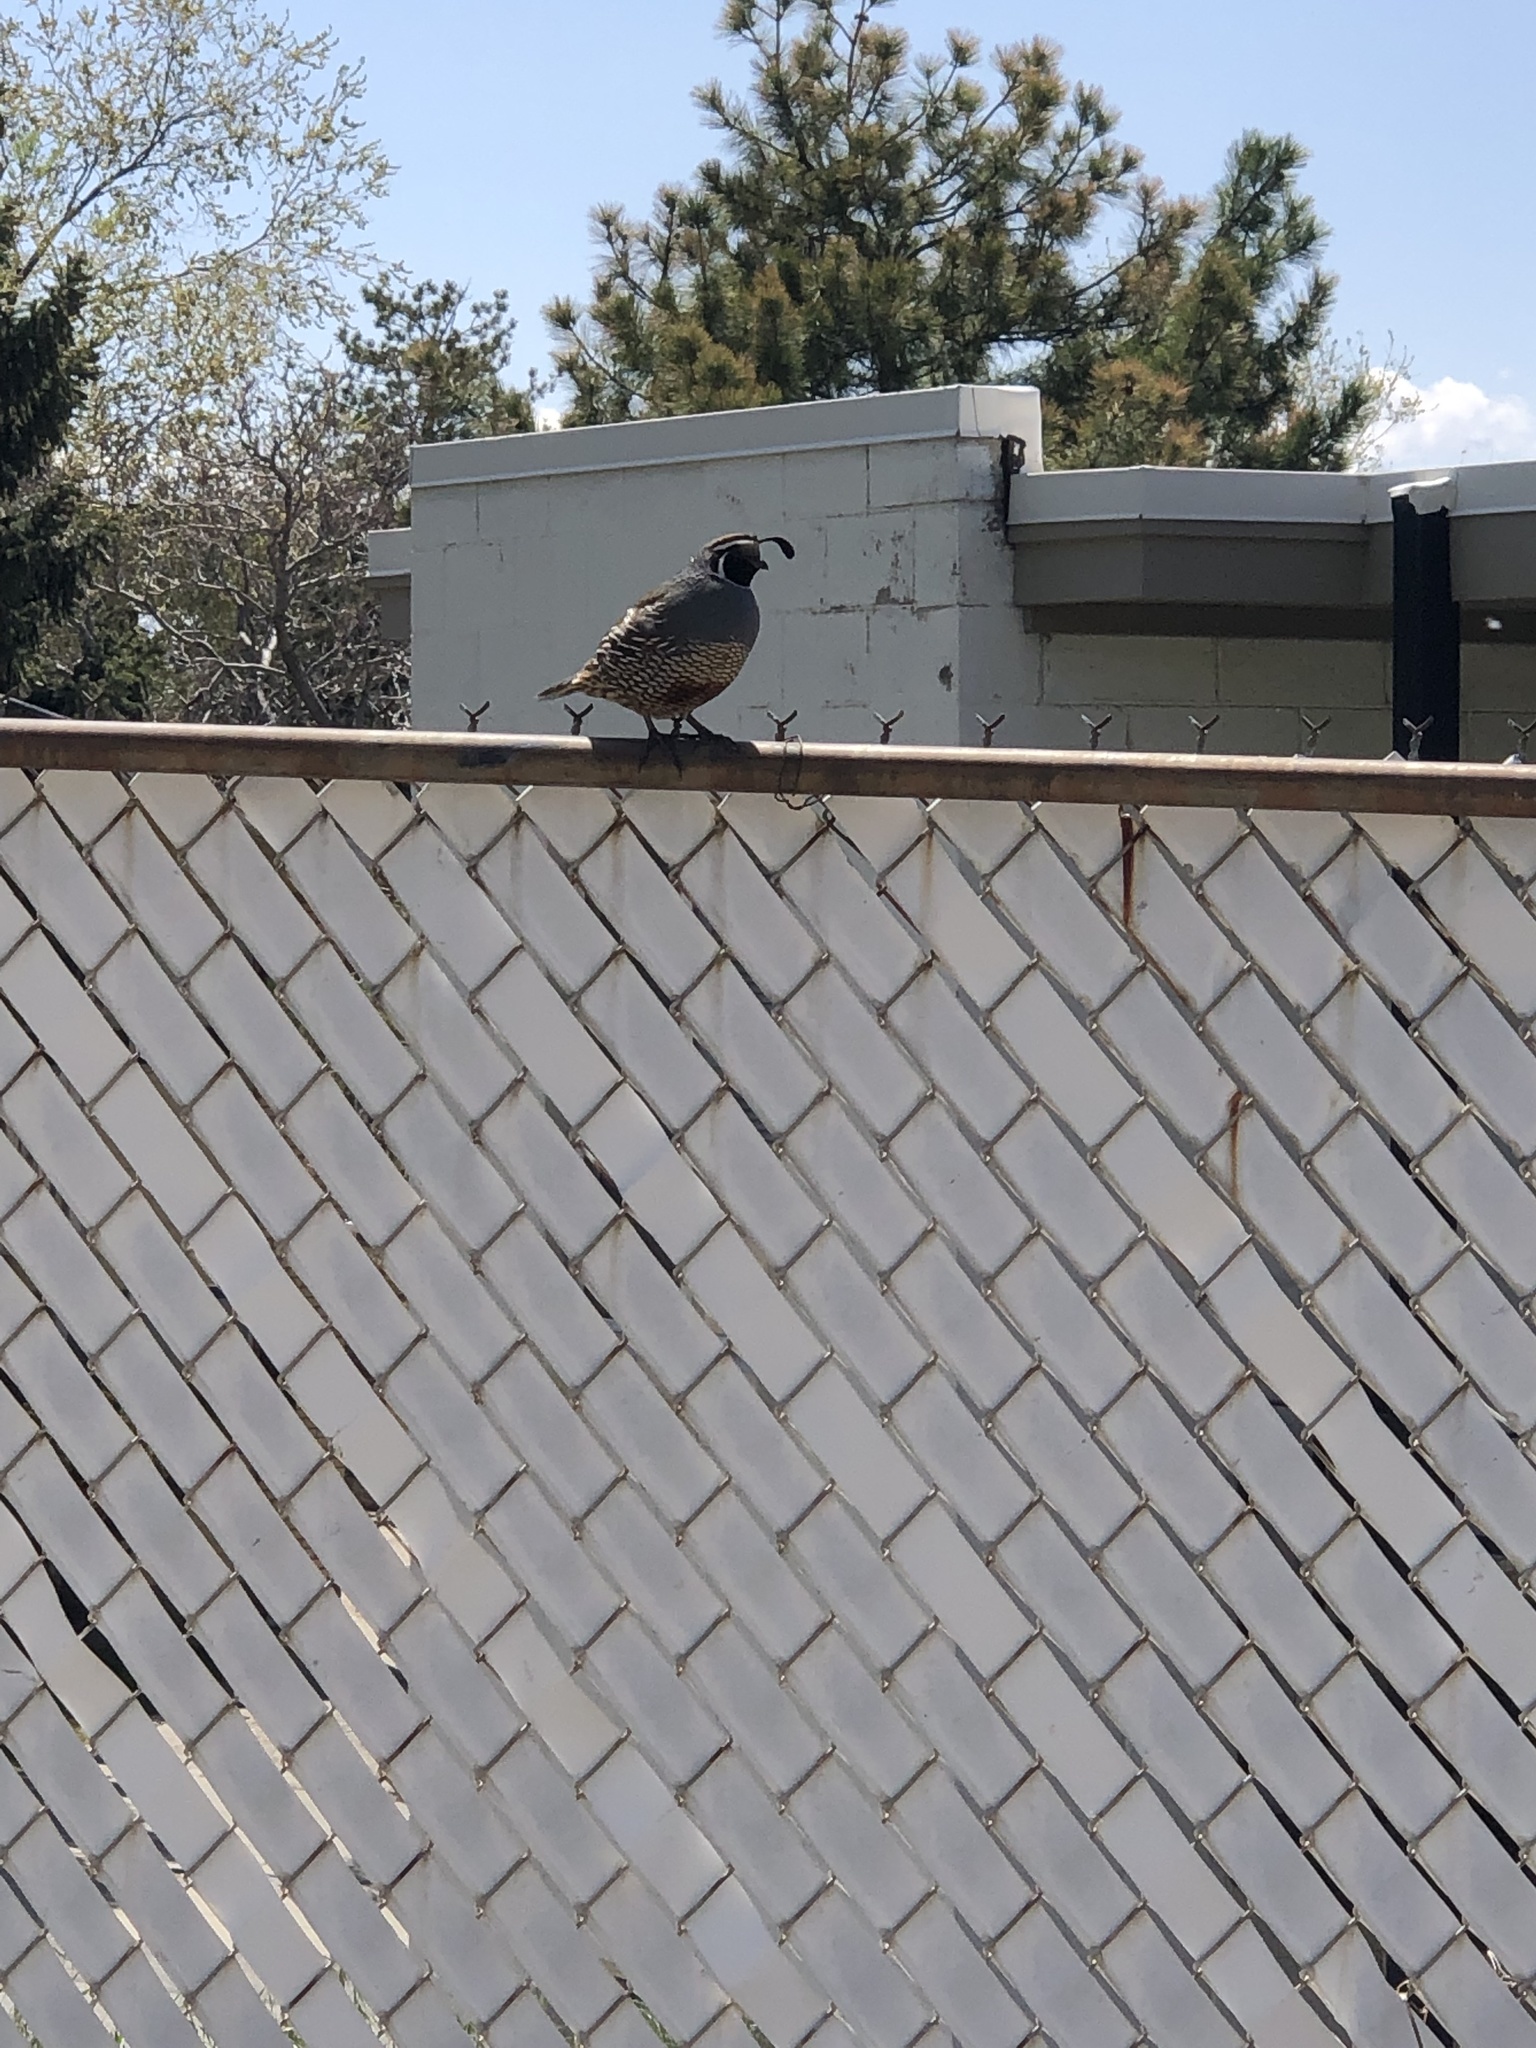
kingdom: Animalia
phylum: Chordata
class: Aves
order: Galliformes
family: Odontophoridae
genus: Callipepla
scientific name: Callipepla californica
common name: California quail
